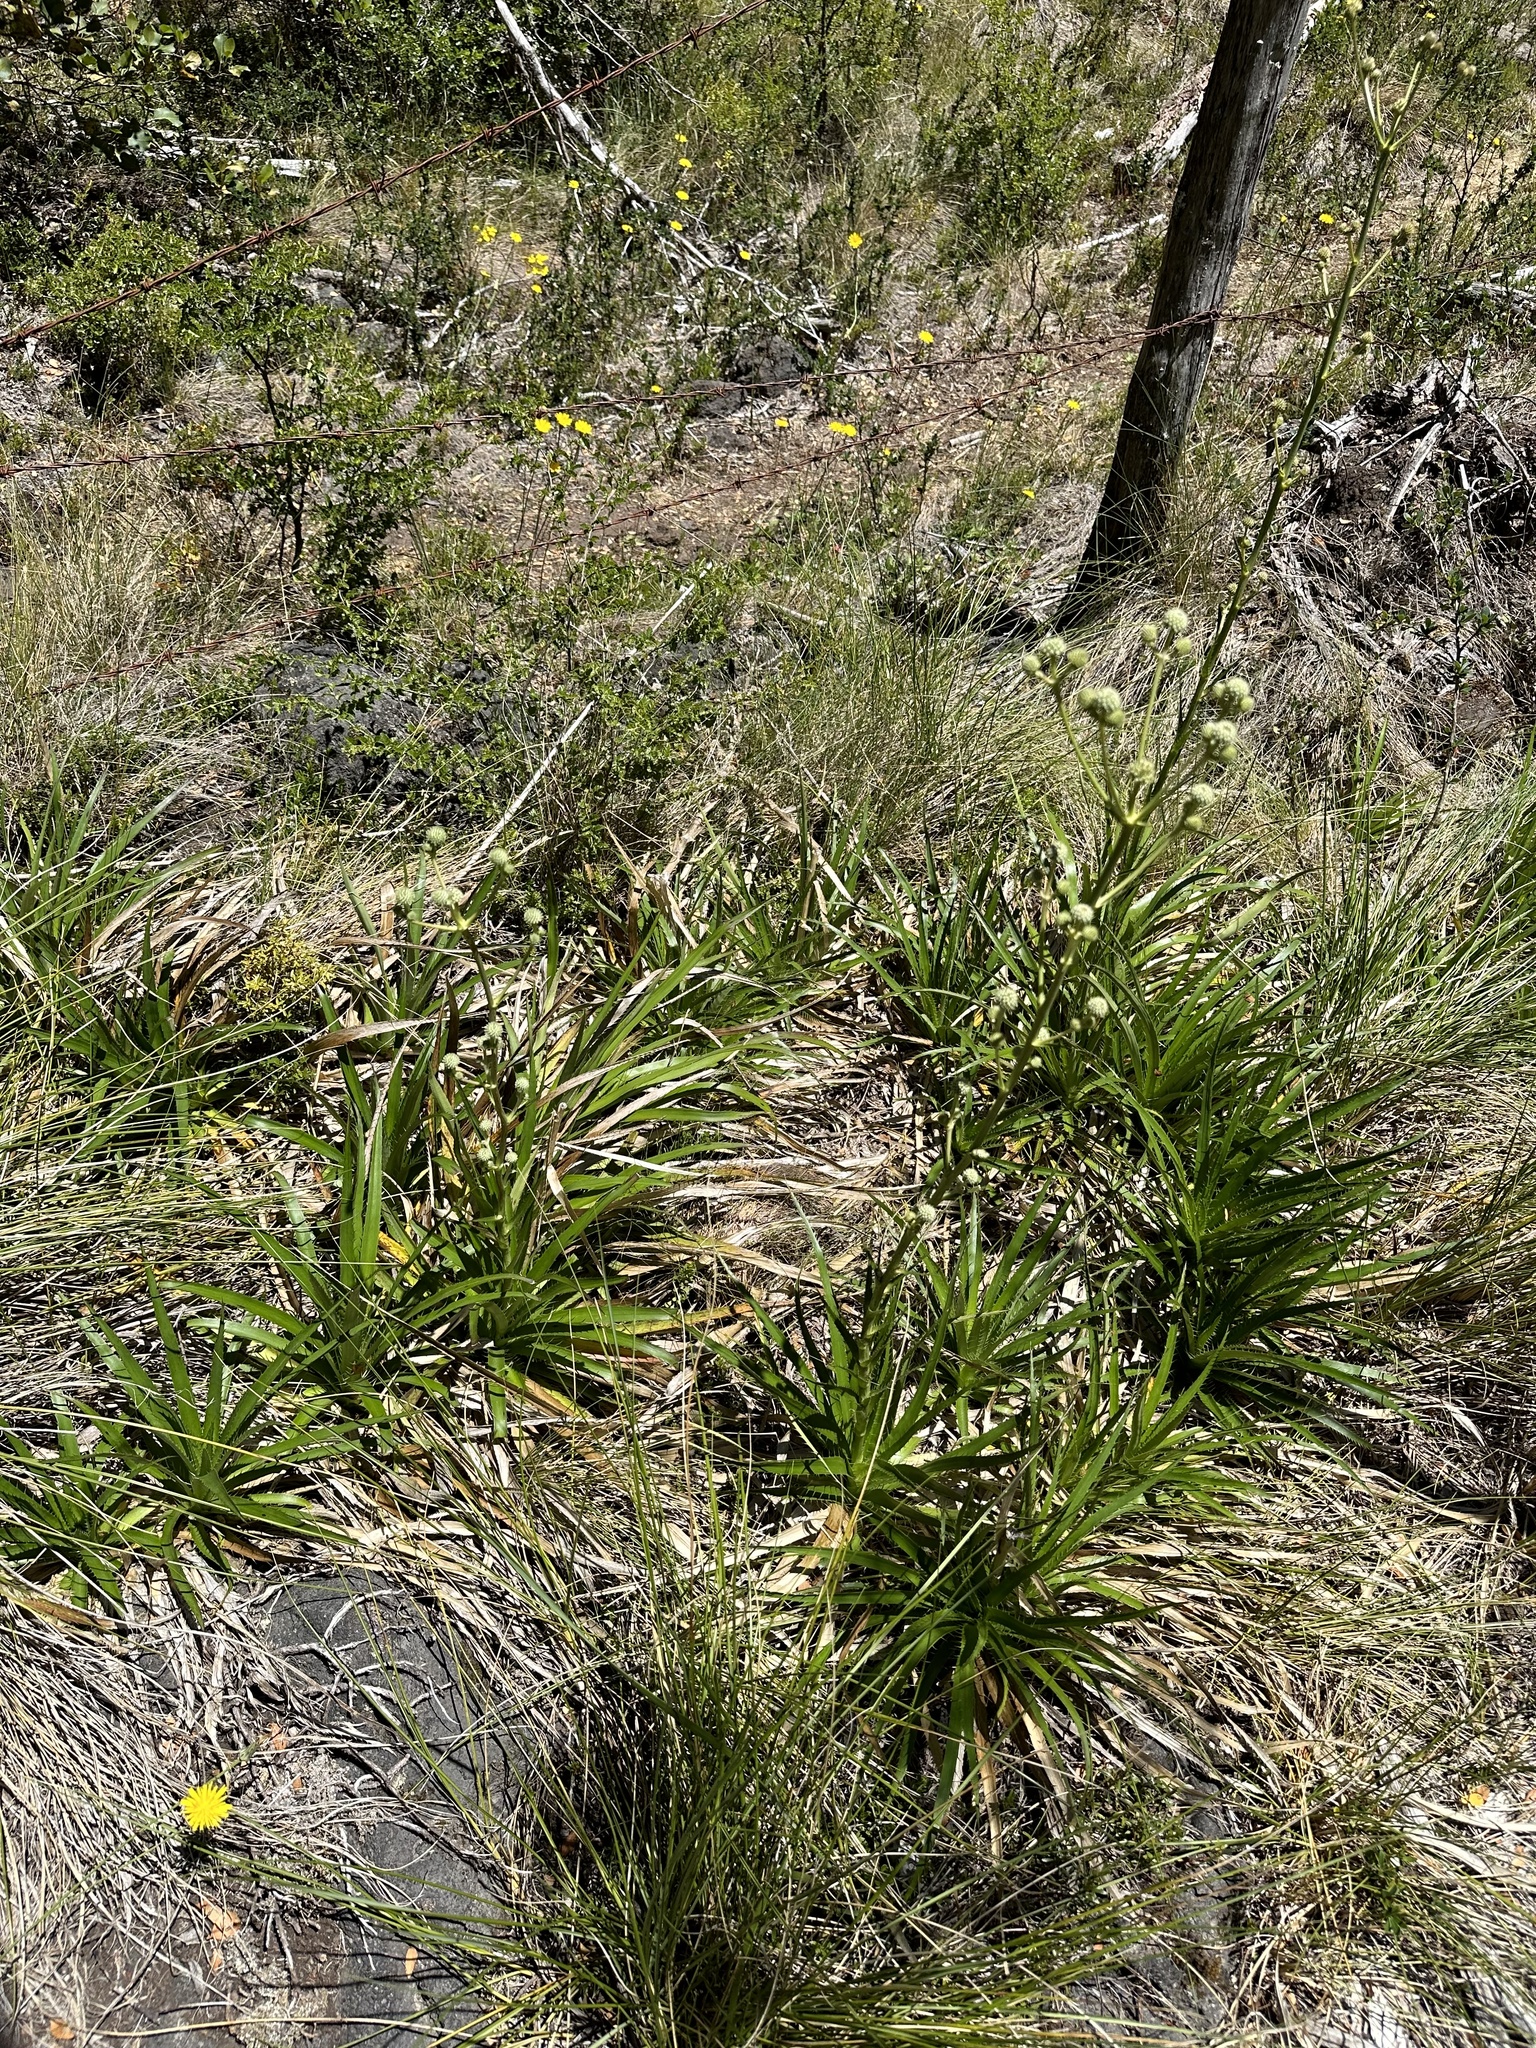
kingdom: Plantae
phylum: Tracheophyta
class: Magnoliopsida
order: Apiales
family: Apiaceae
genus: Eryngium
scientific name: Eryngium humboldtii
